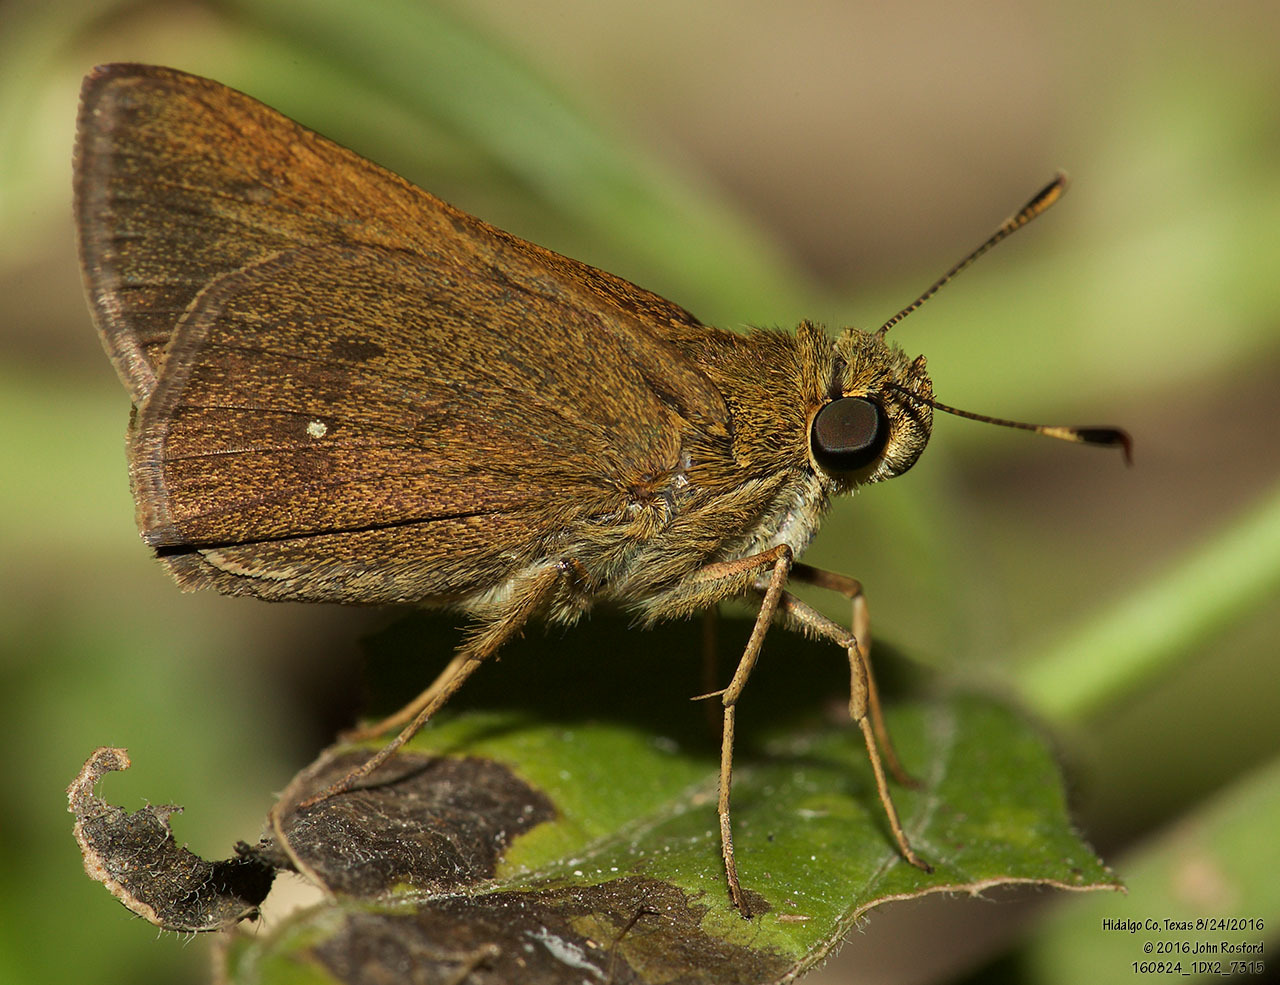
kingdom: Animalia
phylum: Arthropoda
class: Insecta
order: Lepidoptera
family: Hesperiidae
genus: Decinea
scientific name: Decinea percosius
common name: Double-dotted skipper
